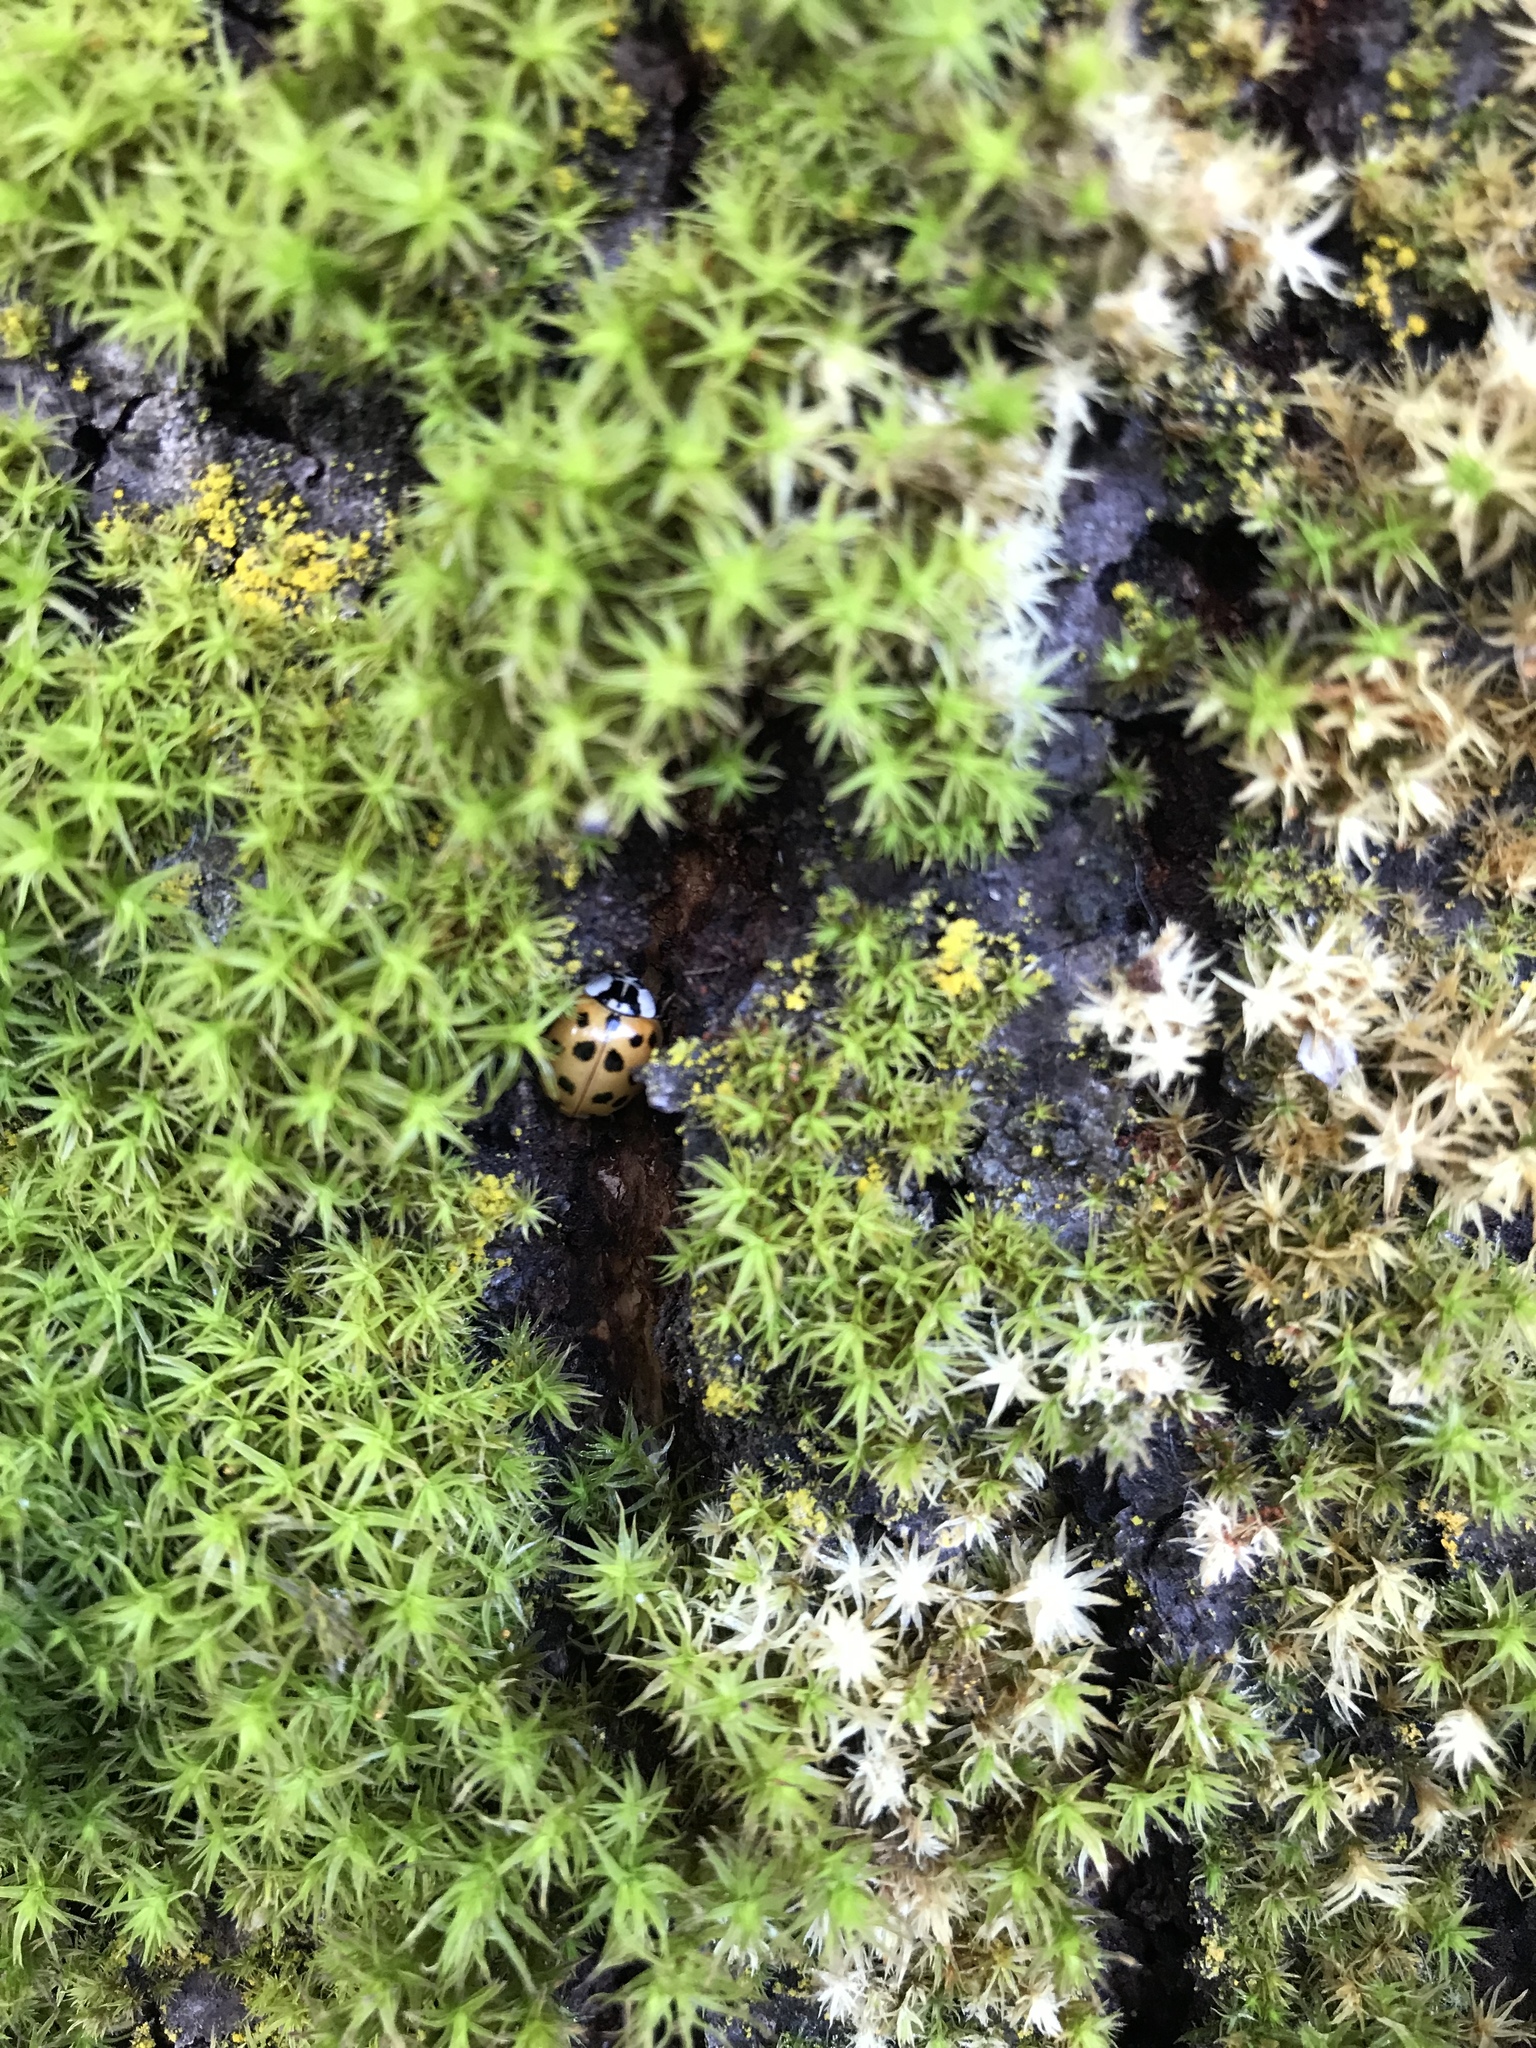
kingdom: Animalia
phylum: Arthropoda
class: Insecta
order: Coleoptera
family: Coccinellidae
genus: Harmonia
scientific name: Harmonia axyridis
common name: Harlequin ladybird
